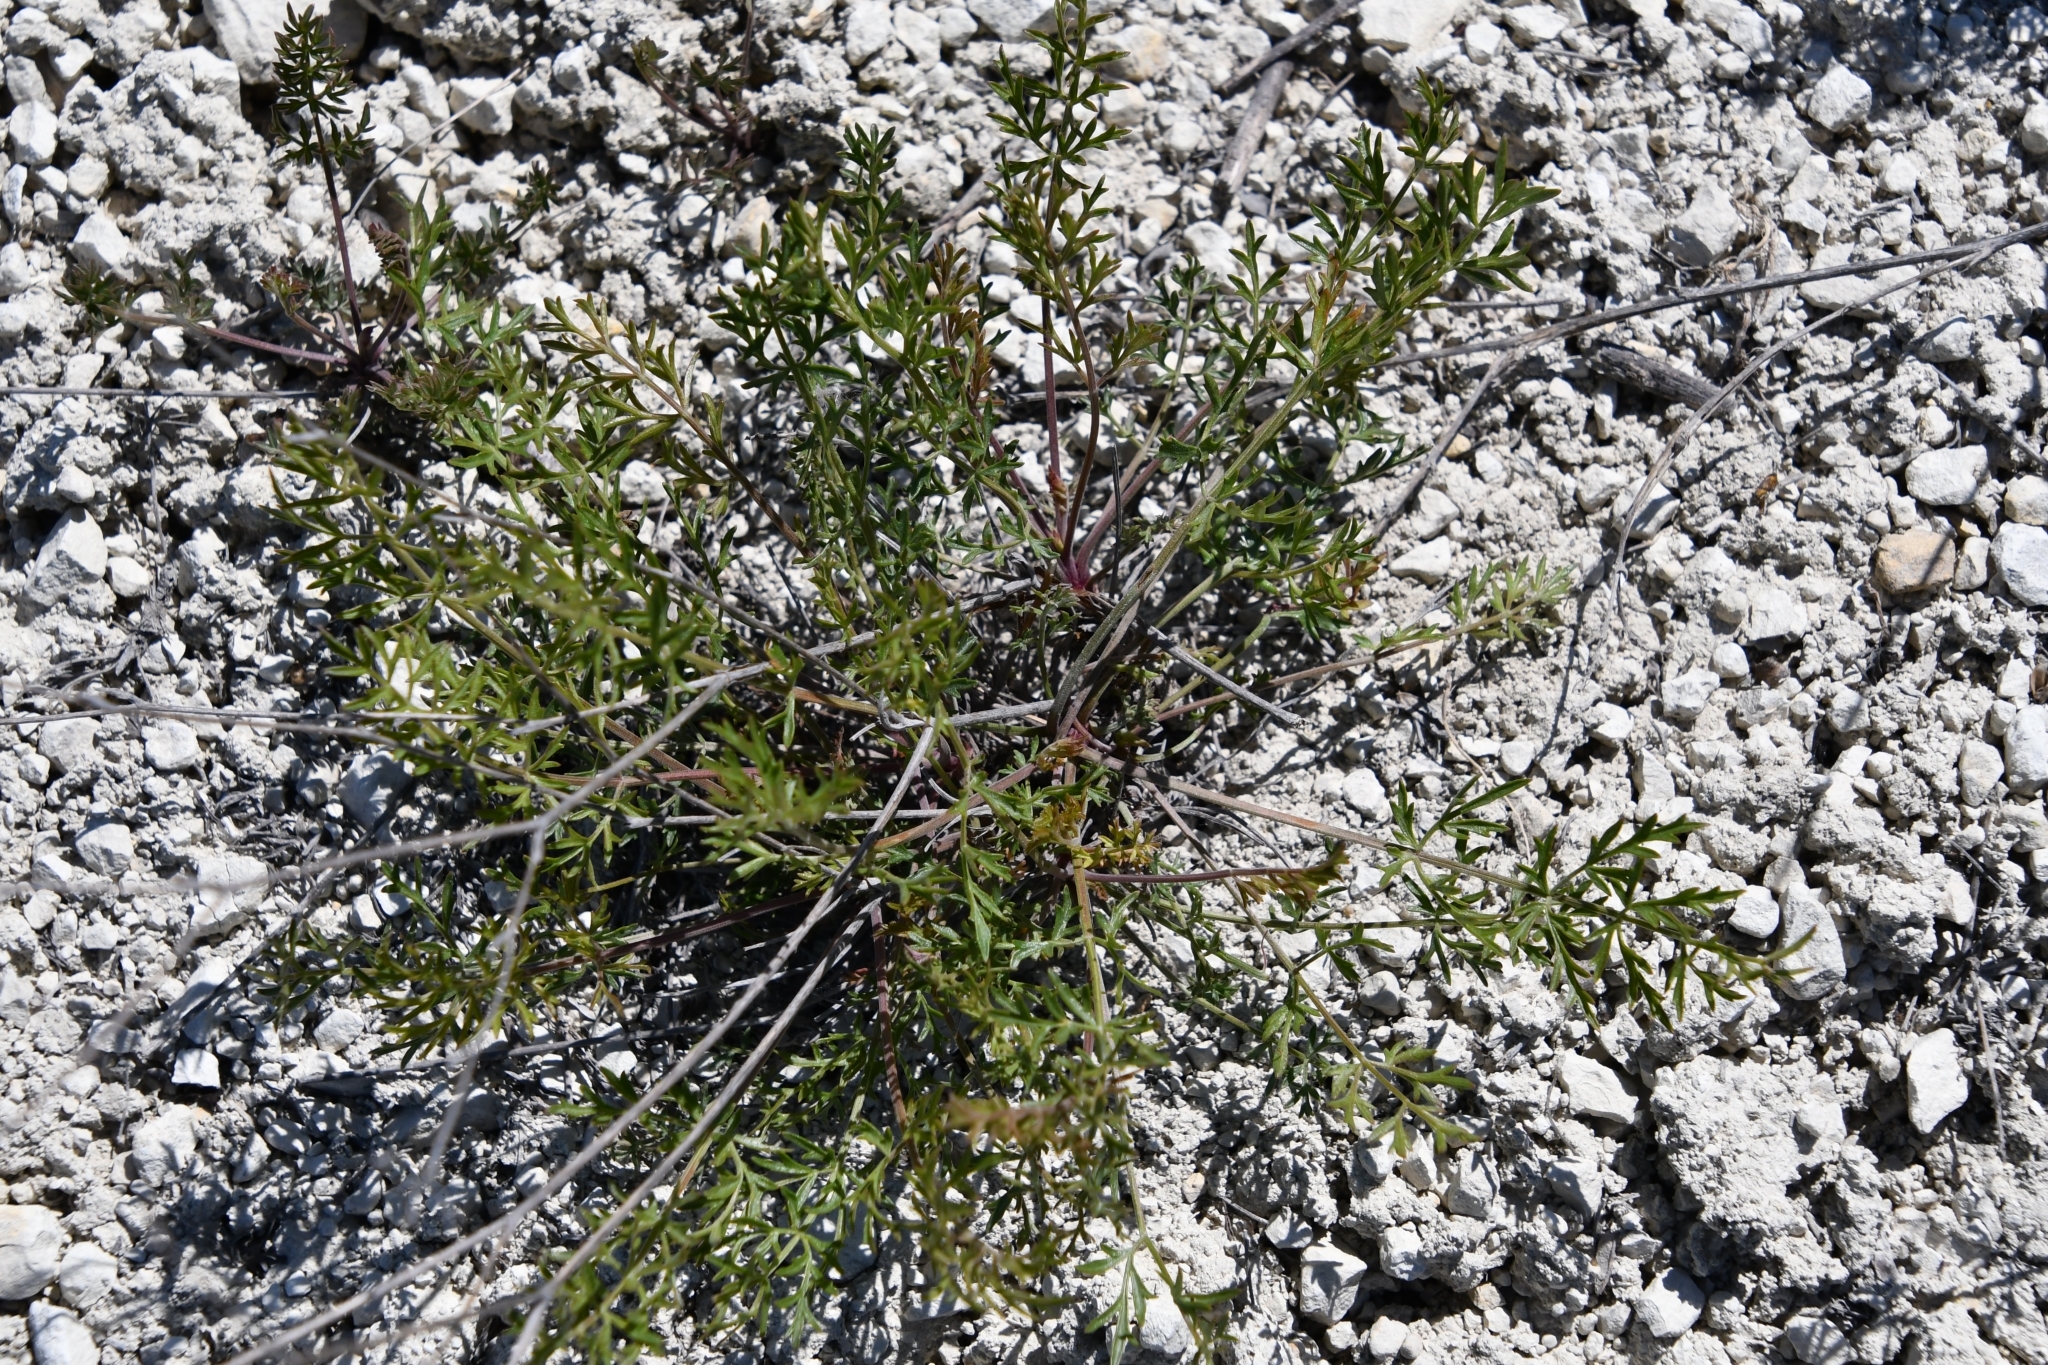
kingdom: Plantae
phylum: Tracheophyta
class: Magnoliopsida
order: Apiales
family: Apiaceae
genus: Pimpinella
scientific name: Pimpinella tragium
